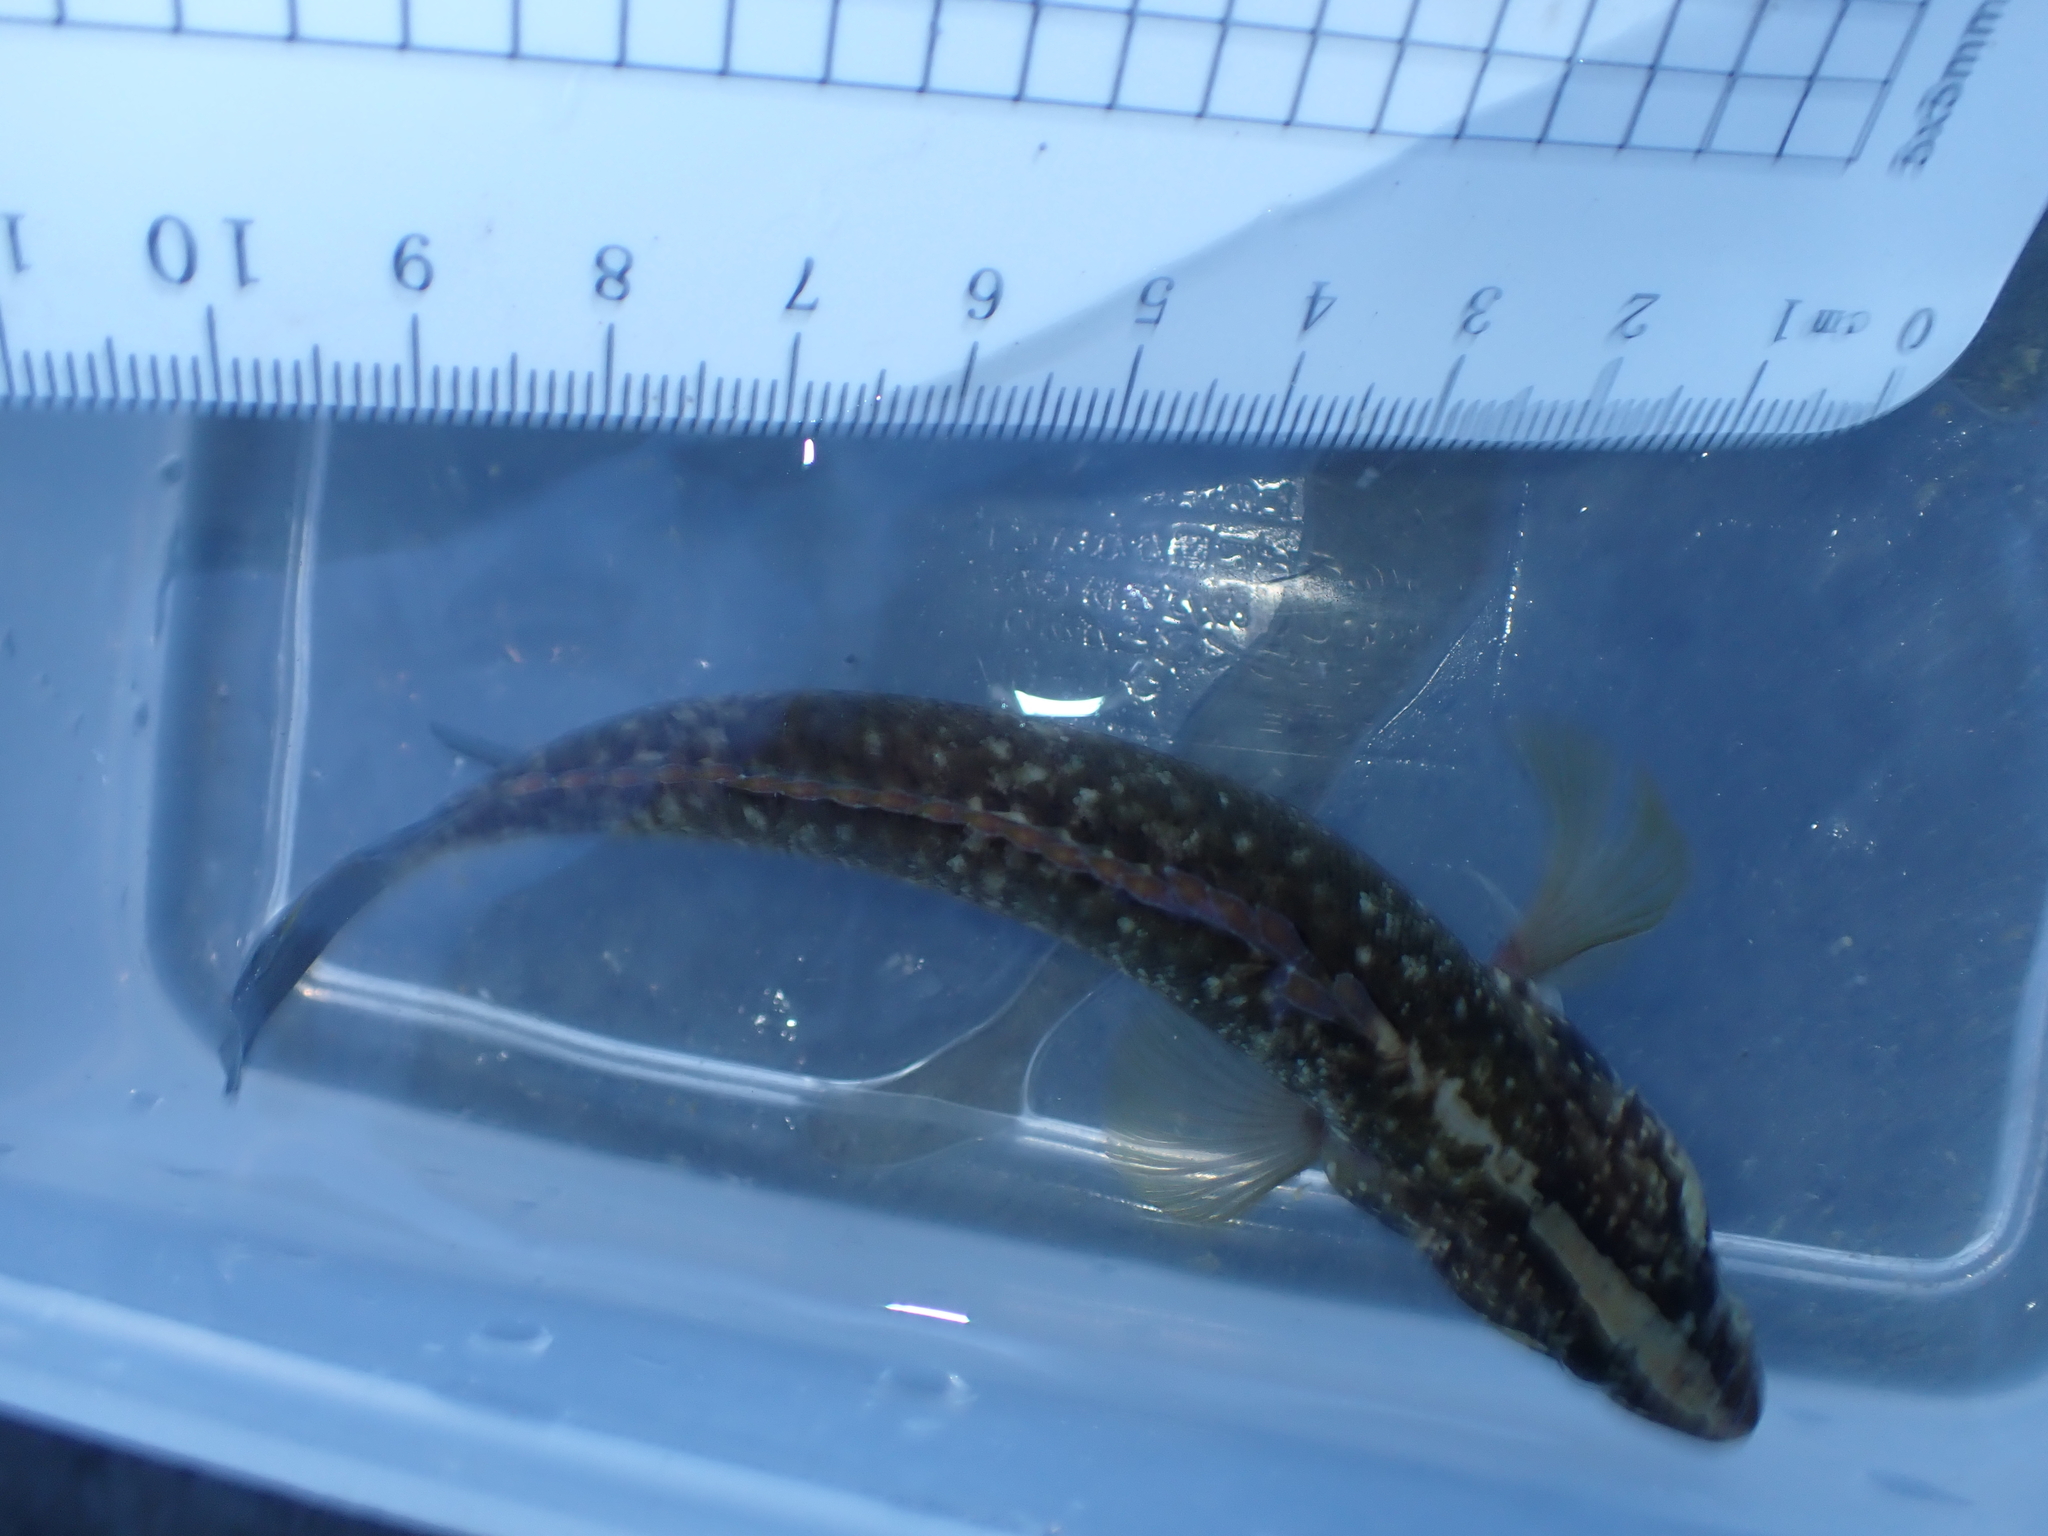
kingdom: Animalia
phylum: Chordata
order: Perciformes
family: Plesiopidae
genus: Acanthoclinus
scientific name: Acanthoclinus fuscus
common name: Olive rockfish
